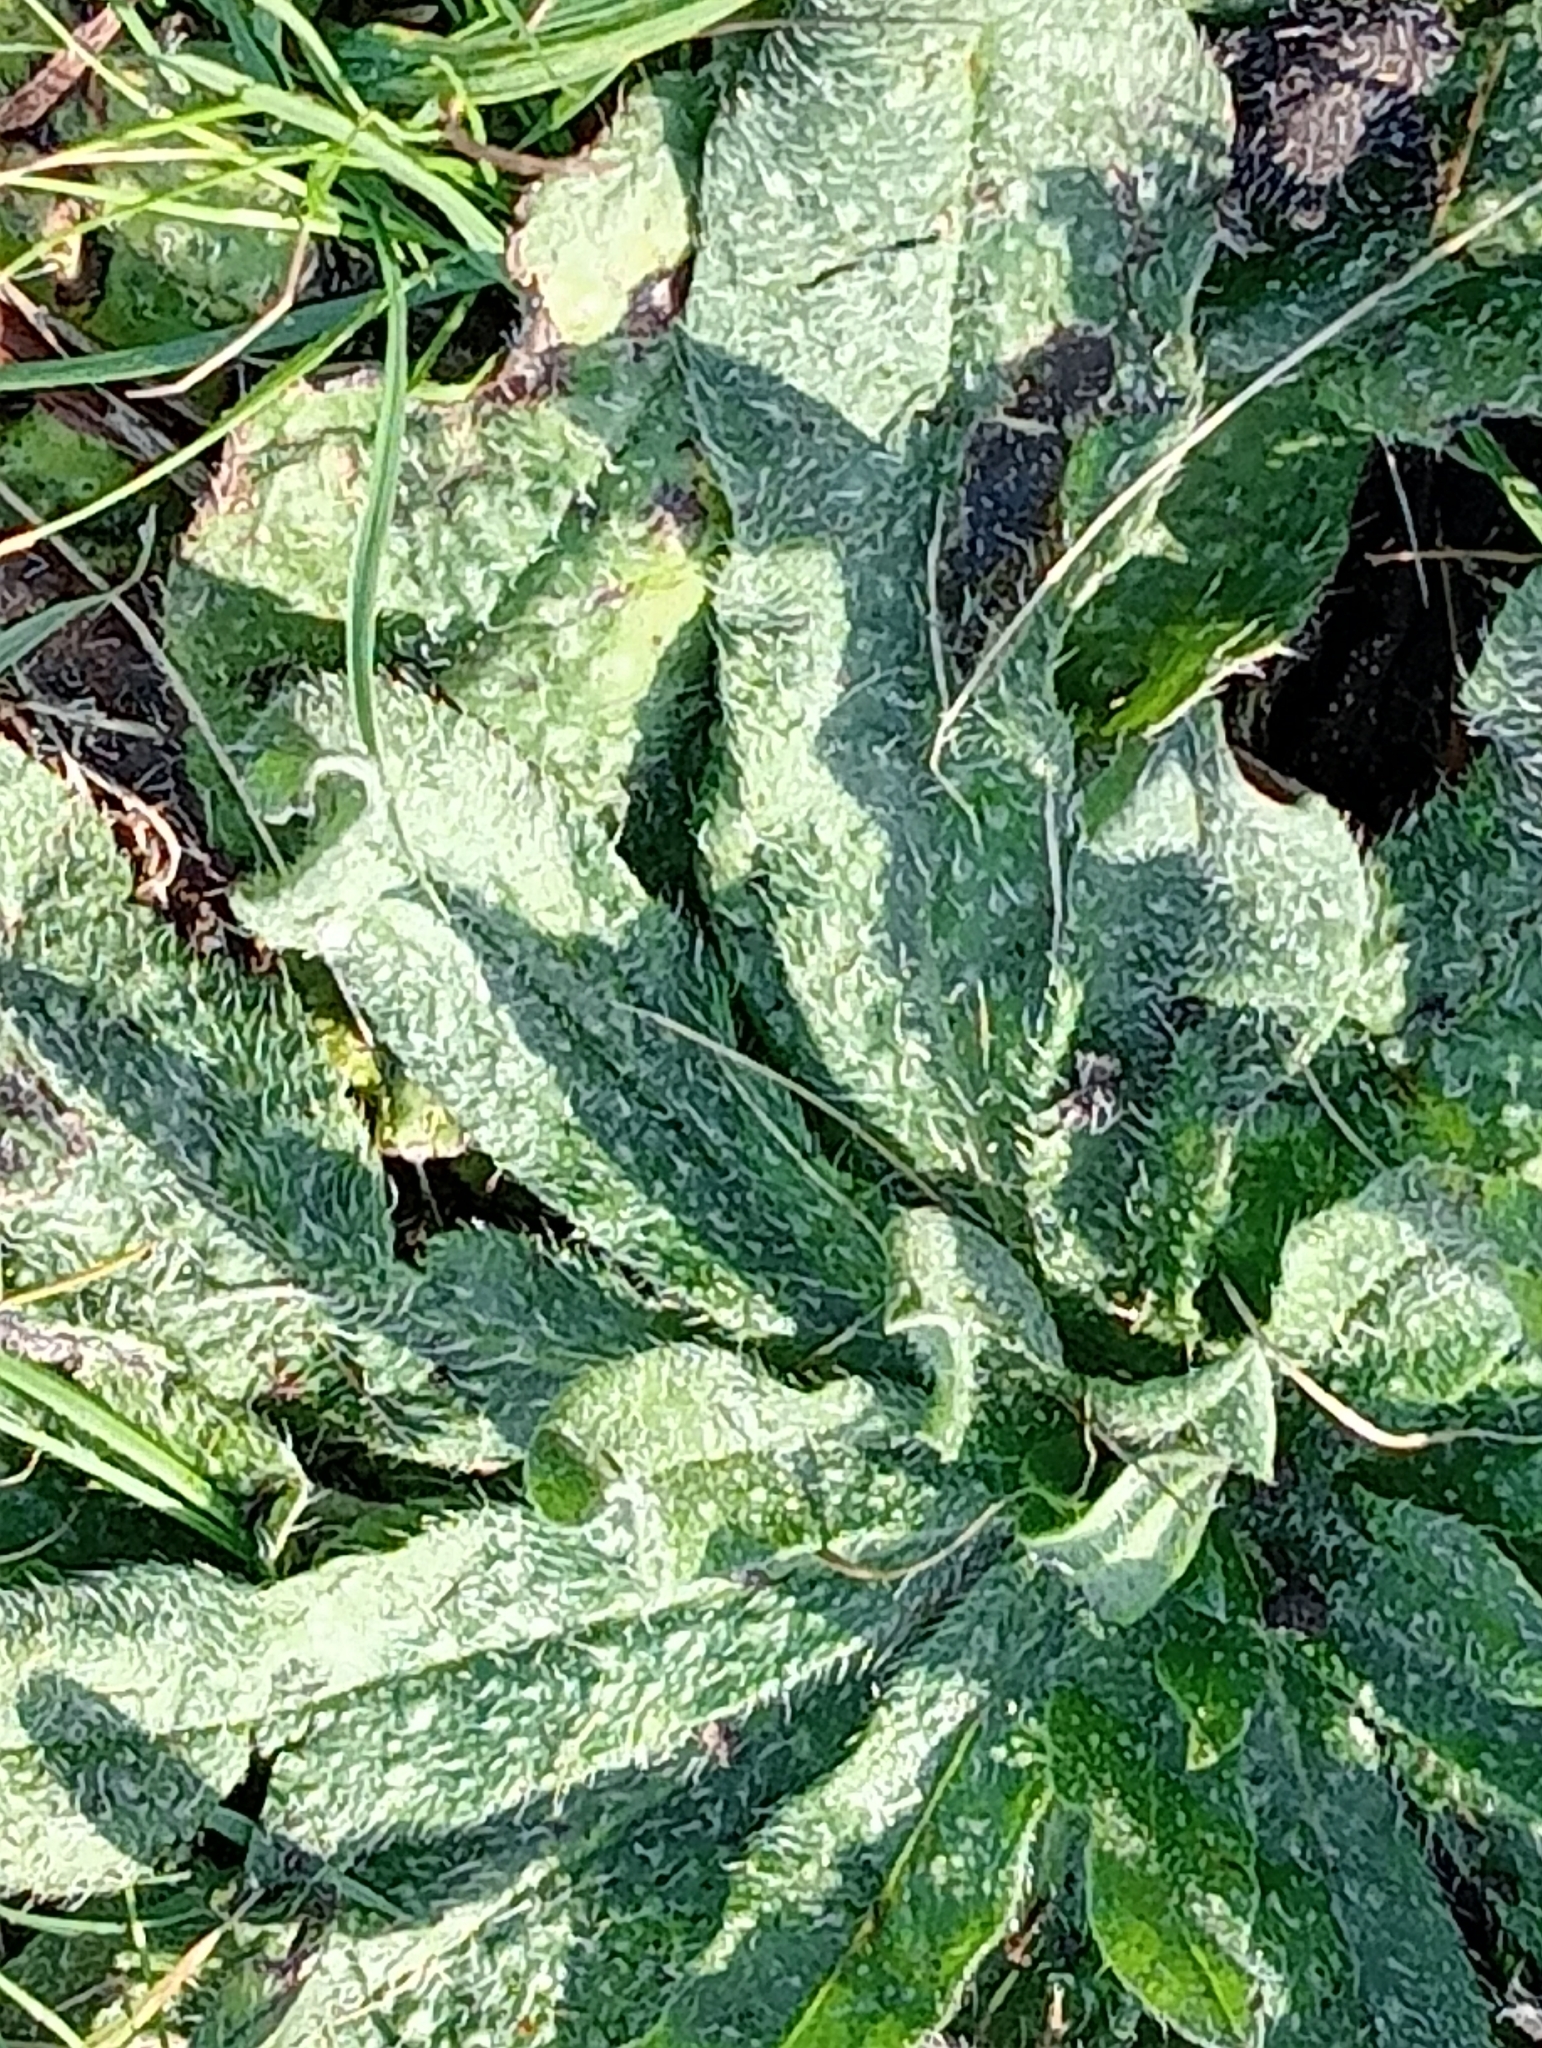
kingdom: Plantae
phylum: Tracheophyta
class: Magnoliopsida
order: Boraginales
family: Boraginaceae
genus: Echium
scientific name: Echium vulgare
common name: Common viper's bugloss
